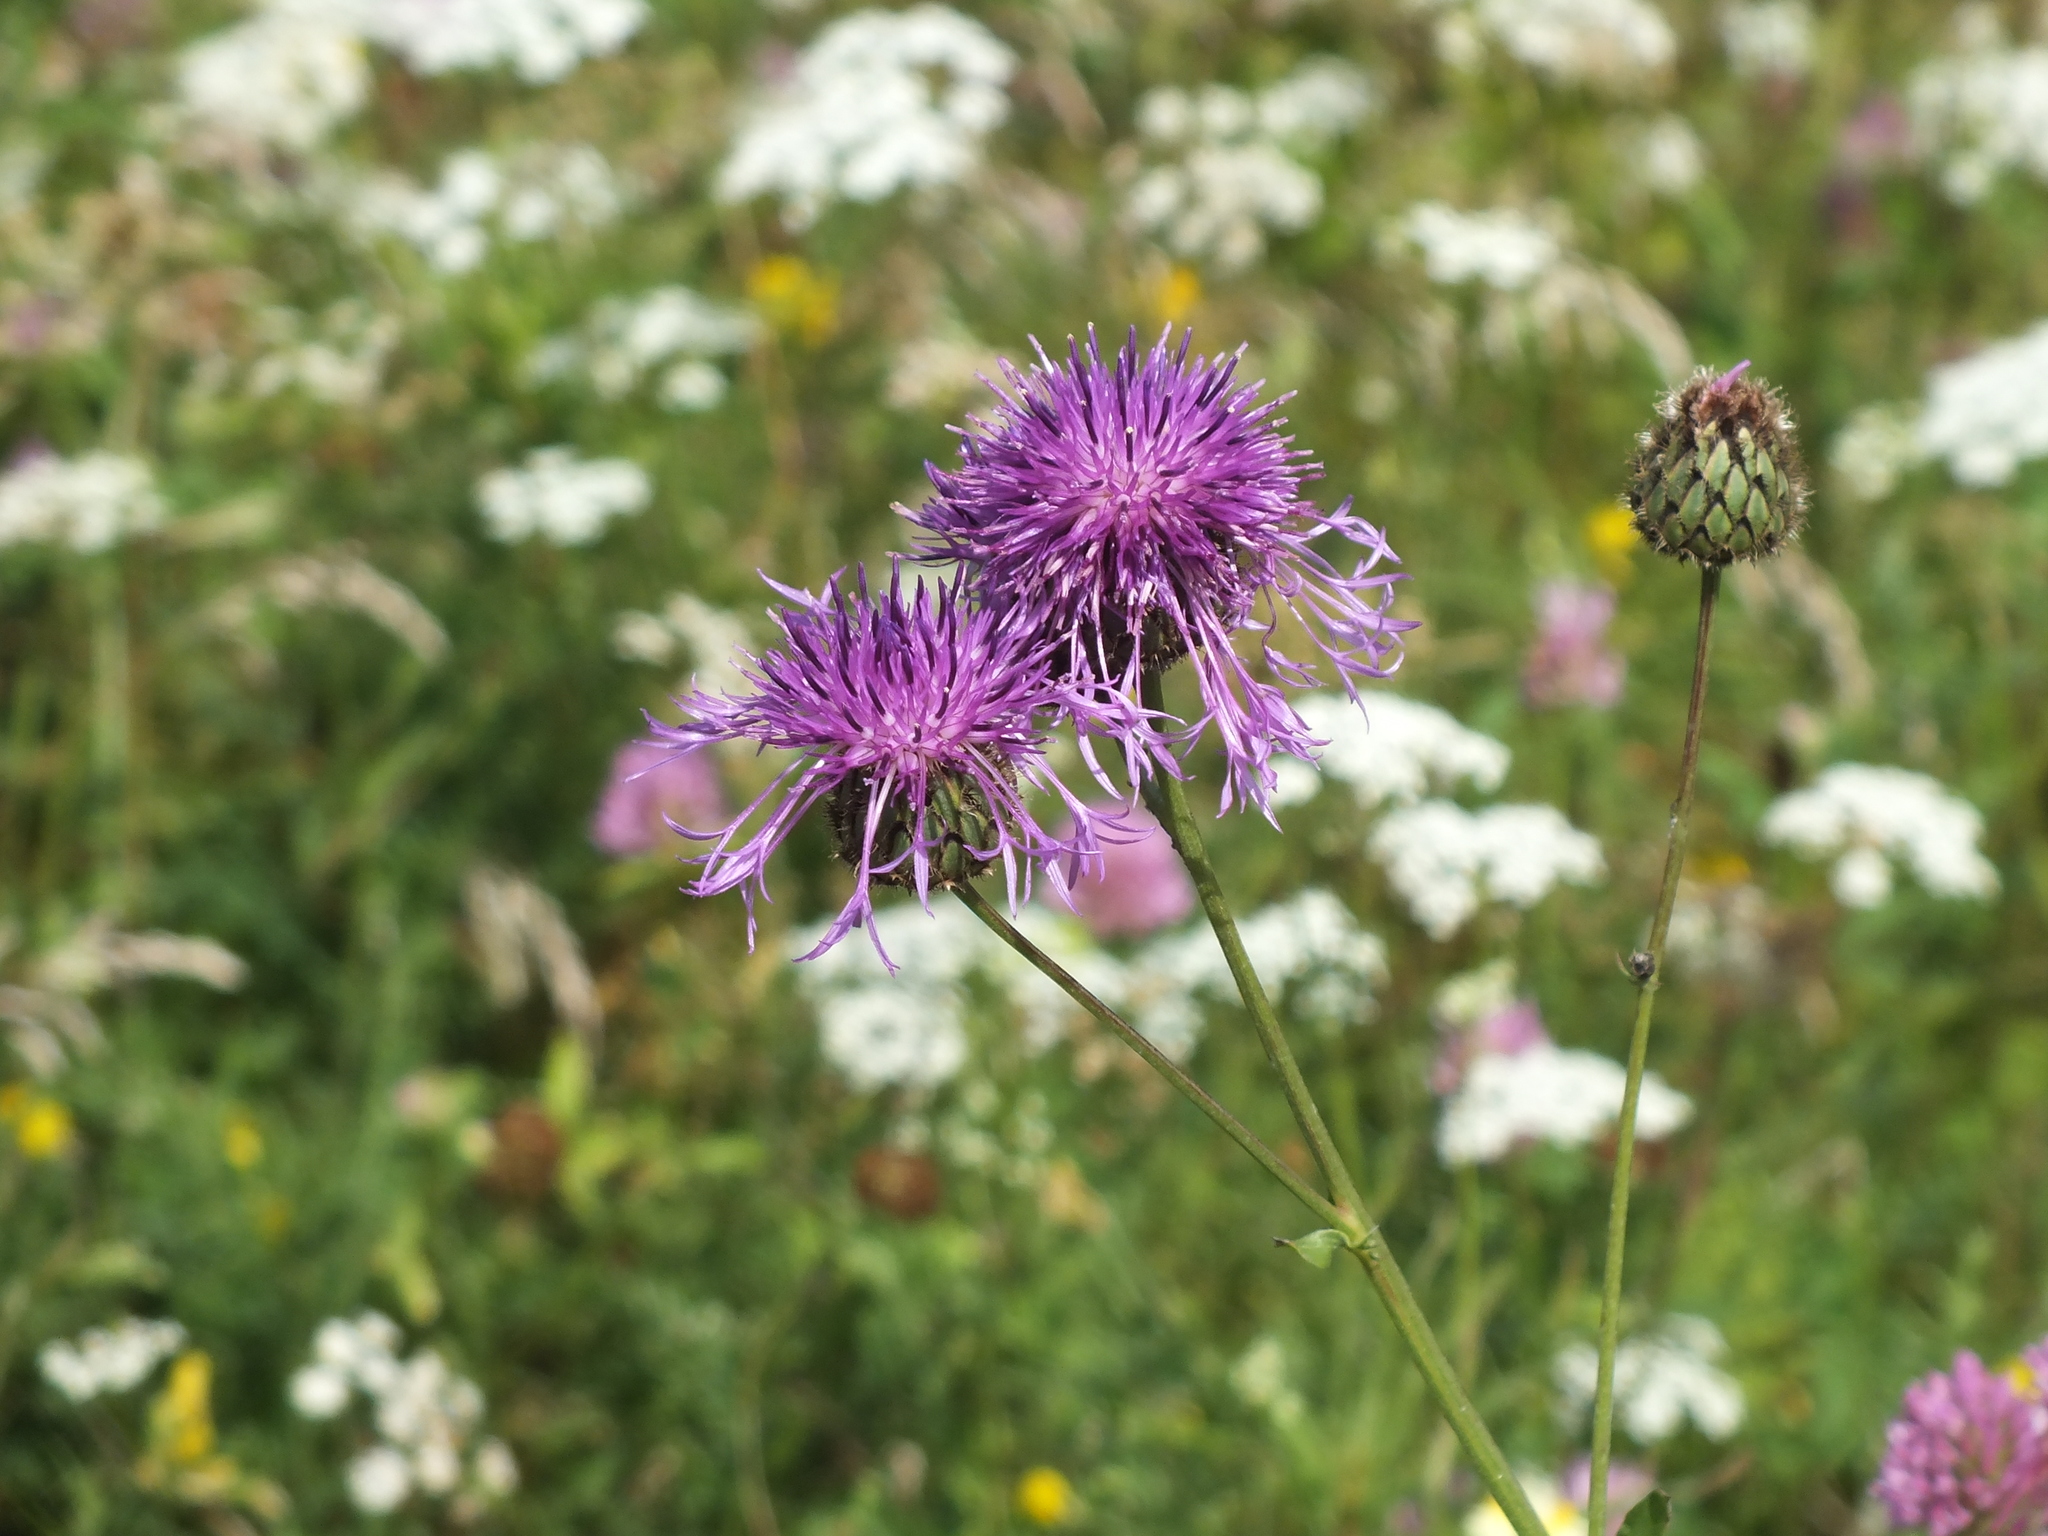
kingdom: Plantae
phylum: Tracheophyta
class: Magnoliopsida
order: Asterales
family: Asteraceae
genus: Centaurea
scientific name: Centaurea scabiosa
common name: Greater knapweed
